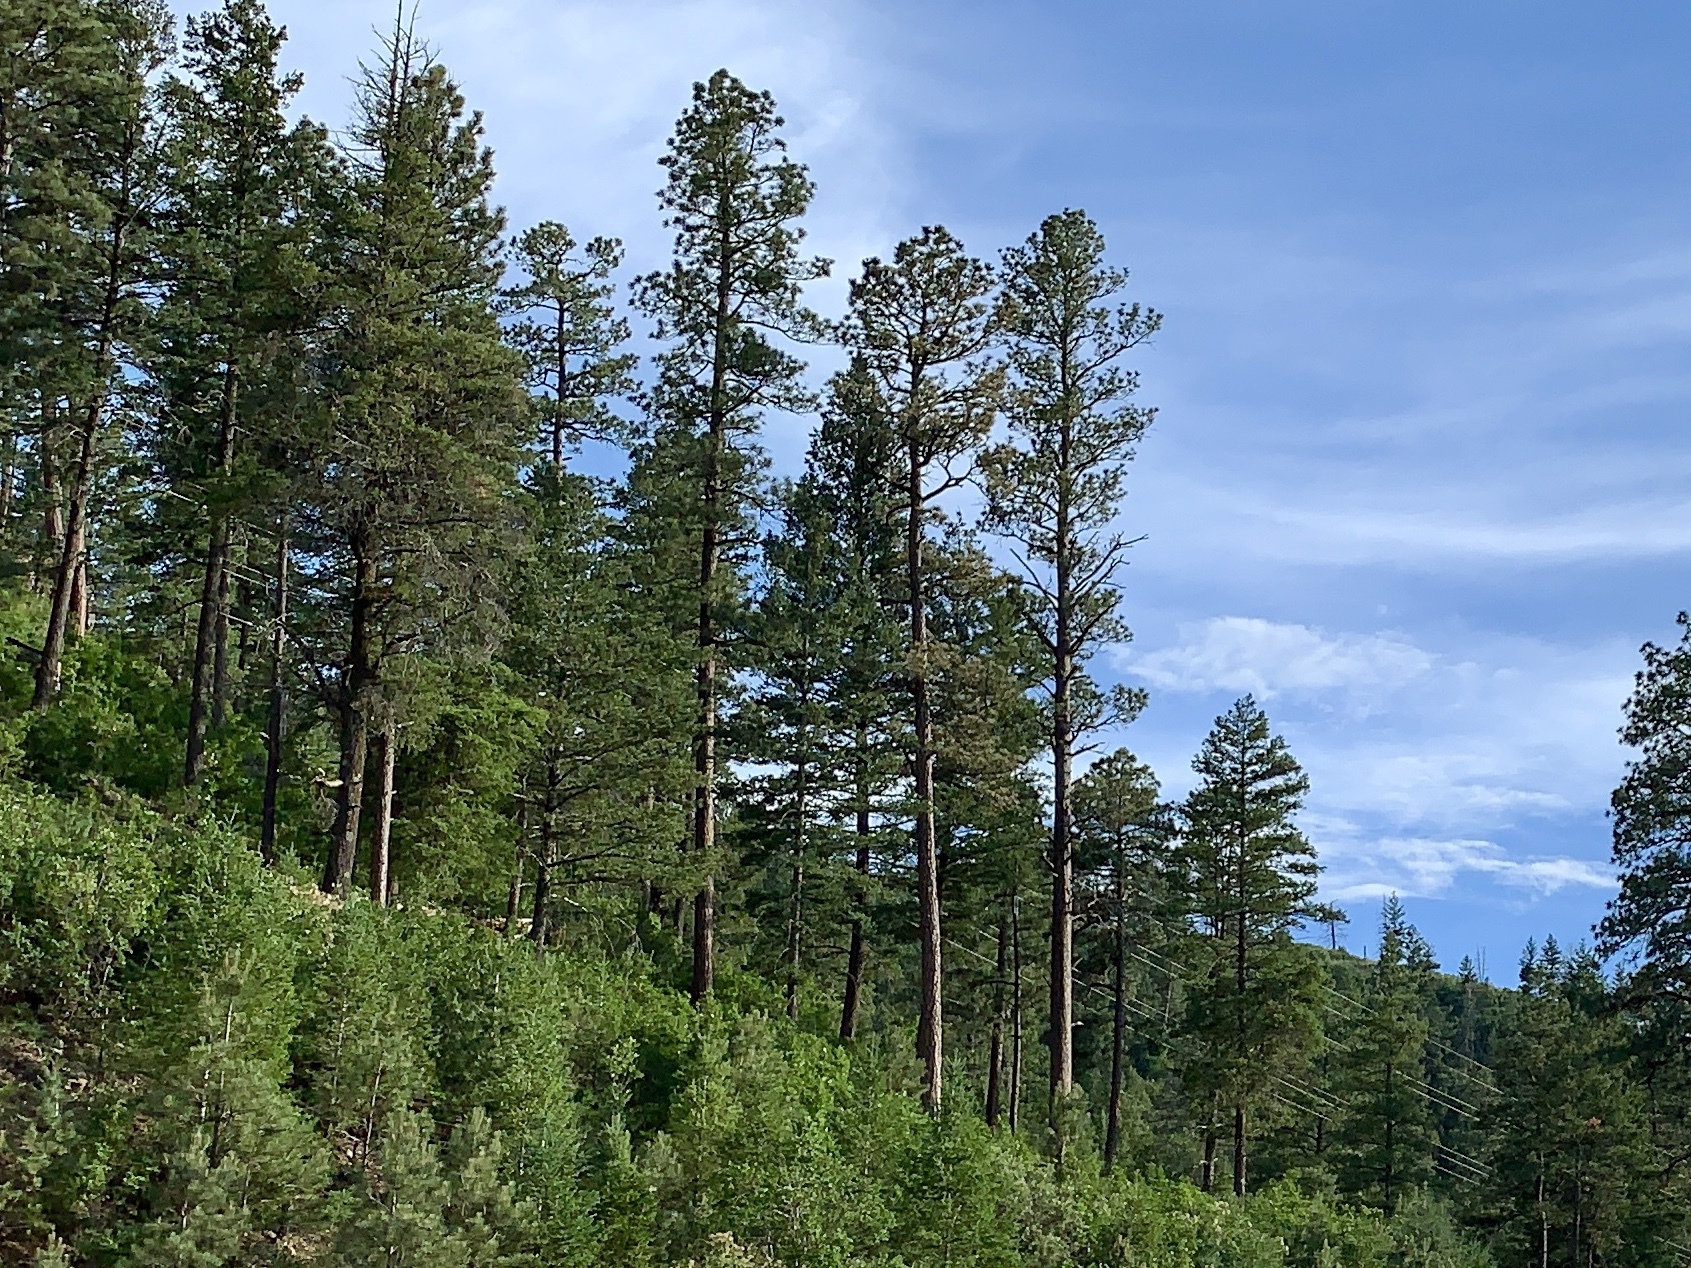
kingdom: Plantae
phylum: Tracheophyta
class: Pinopsida
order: Pinales
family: Pinaceae
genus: Pinus
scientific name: Pinus ponderosa
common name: Western yellow-pine
